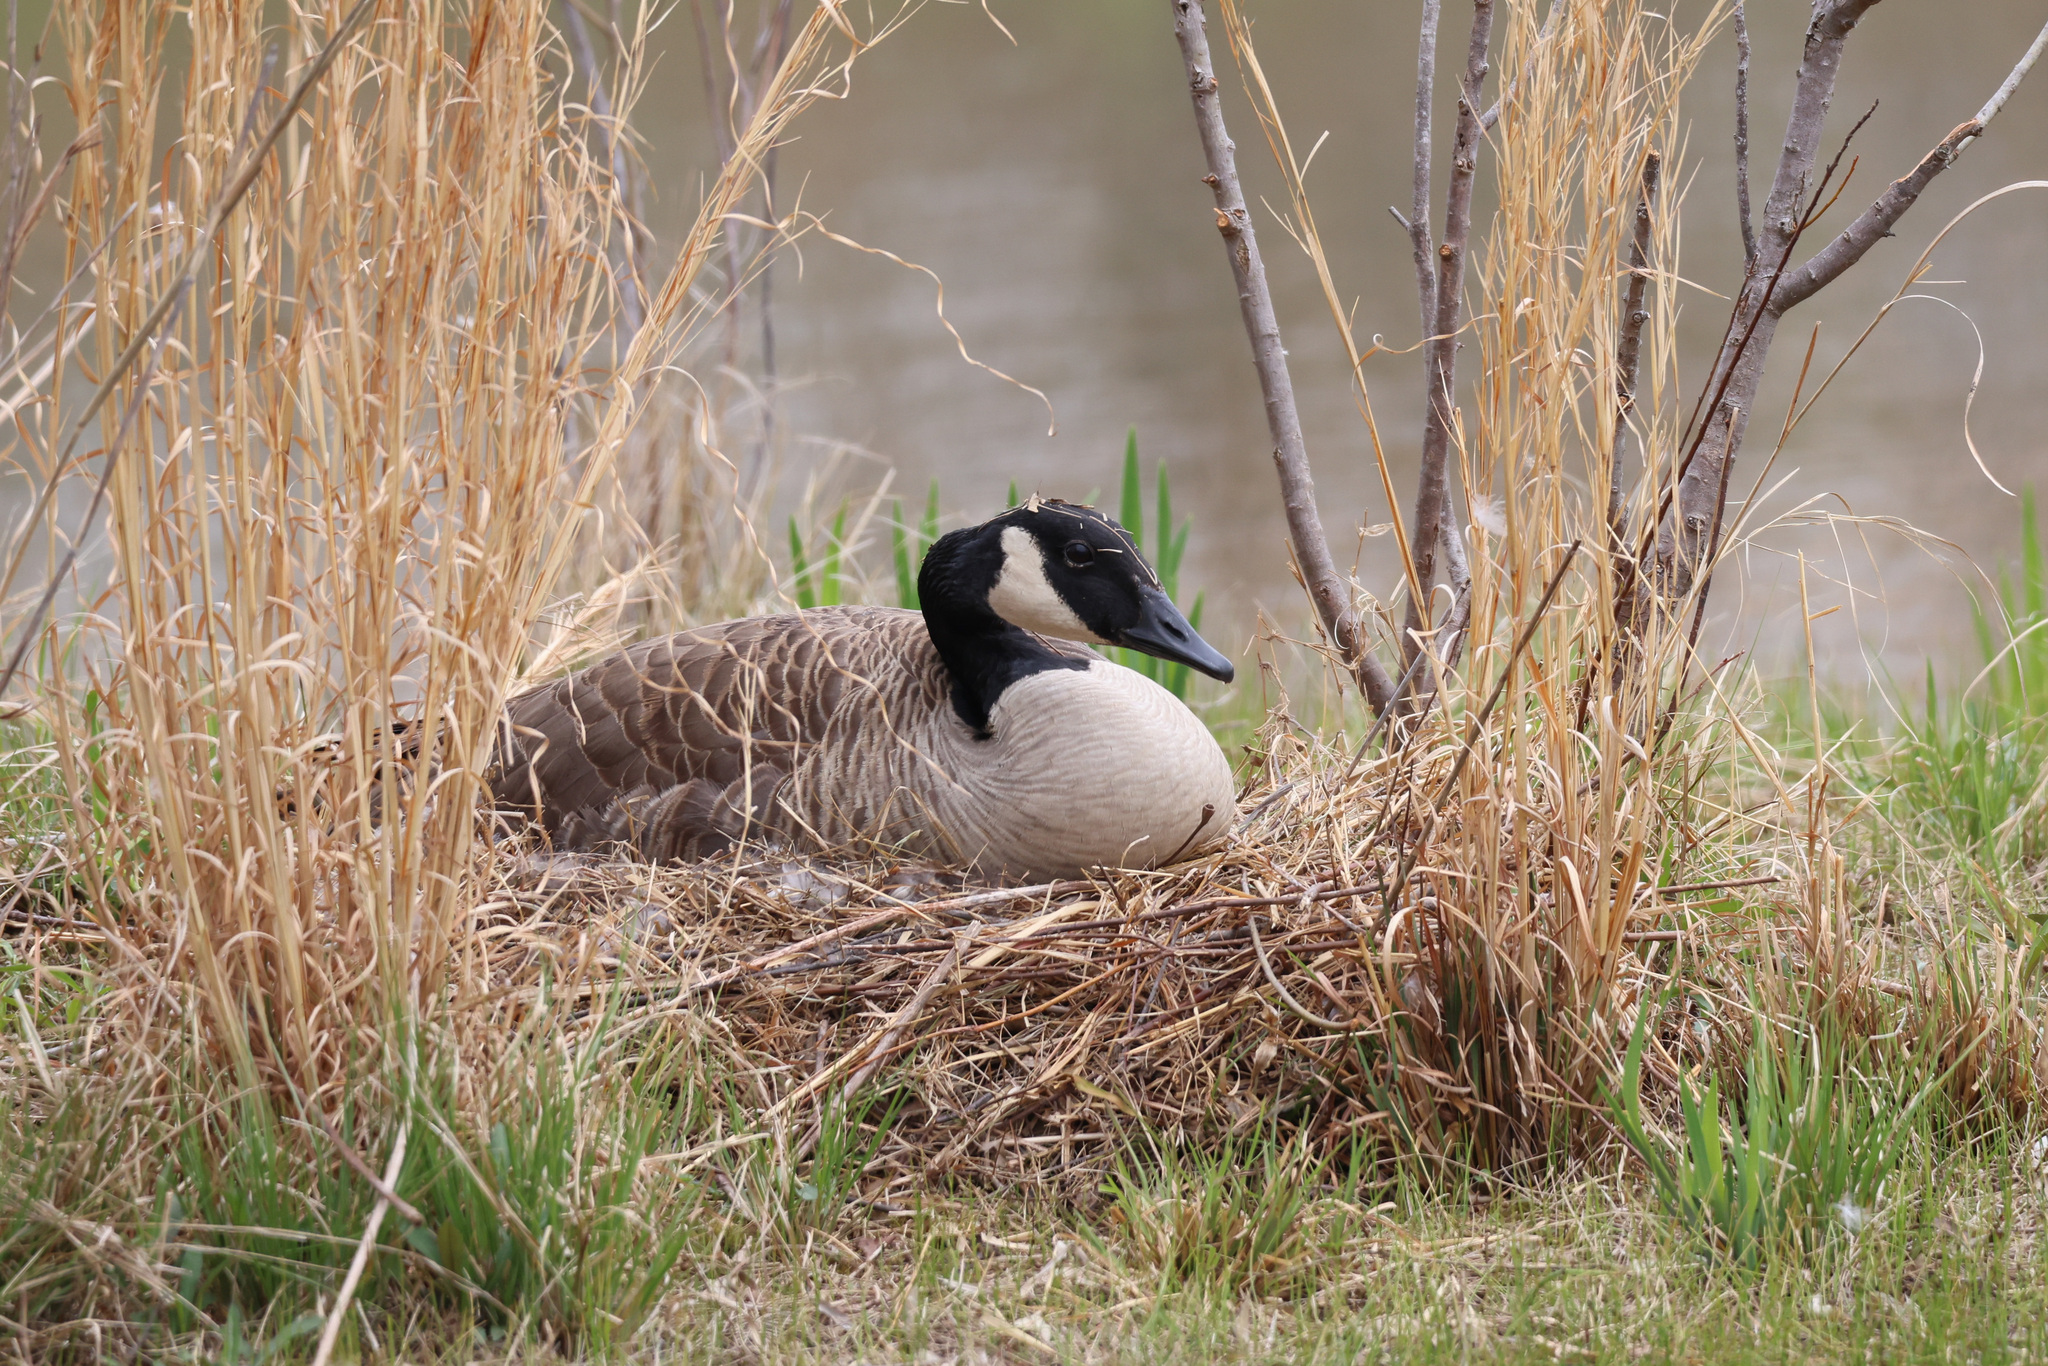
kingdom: Animalia
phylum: Chordata
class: Aves
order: Anseriformes
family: Anatidae
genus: Branta
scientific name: Branta canadensis
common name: Canada goose
